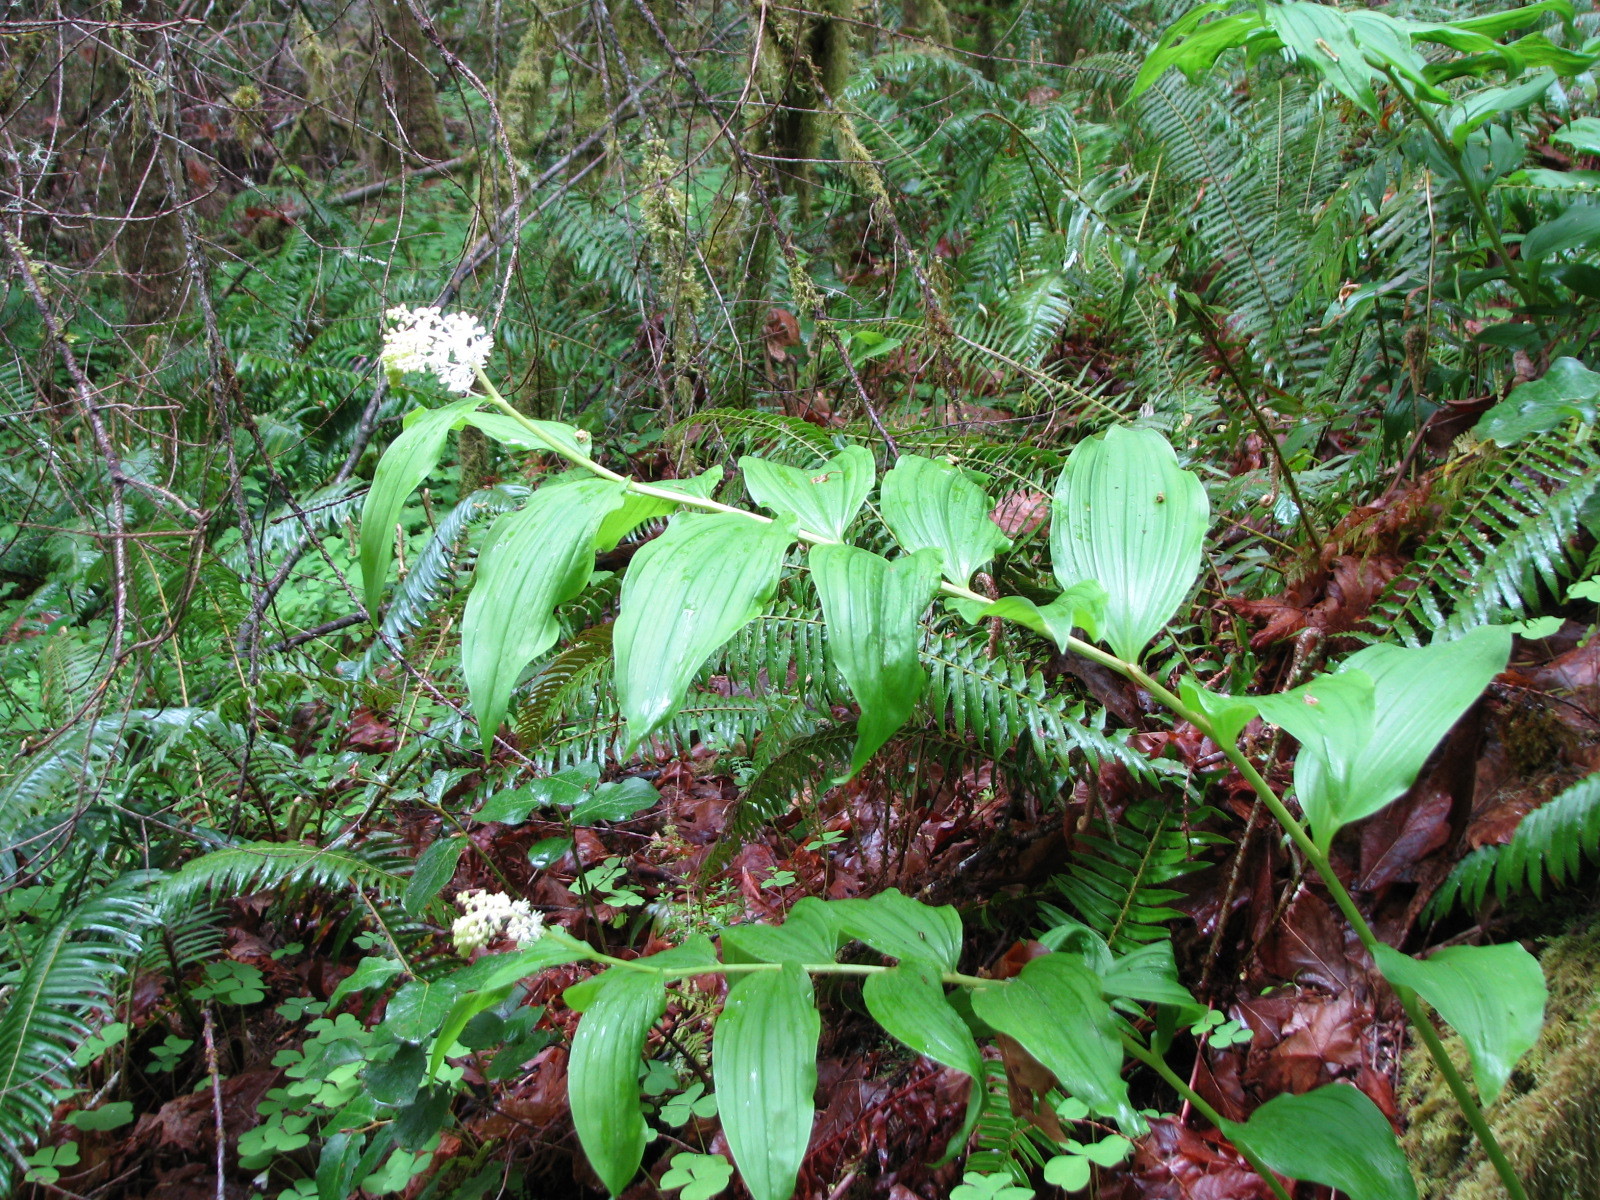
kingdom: Plantae
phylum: Tracheophyta
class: Liliopsida
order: Asparagales
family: Asparagaceae
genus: Maianthemum
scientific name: Maianthemum racemosum
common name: False spikenard
